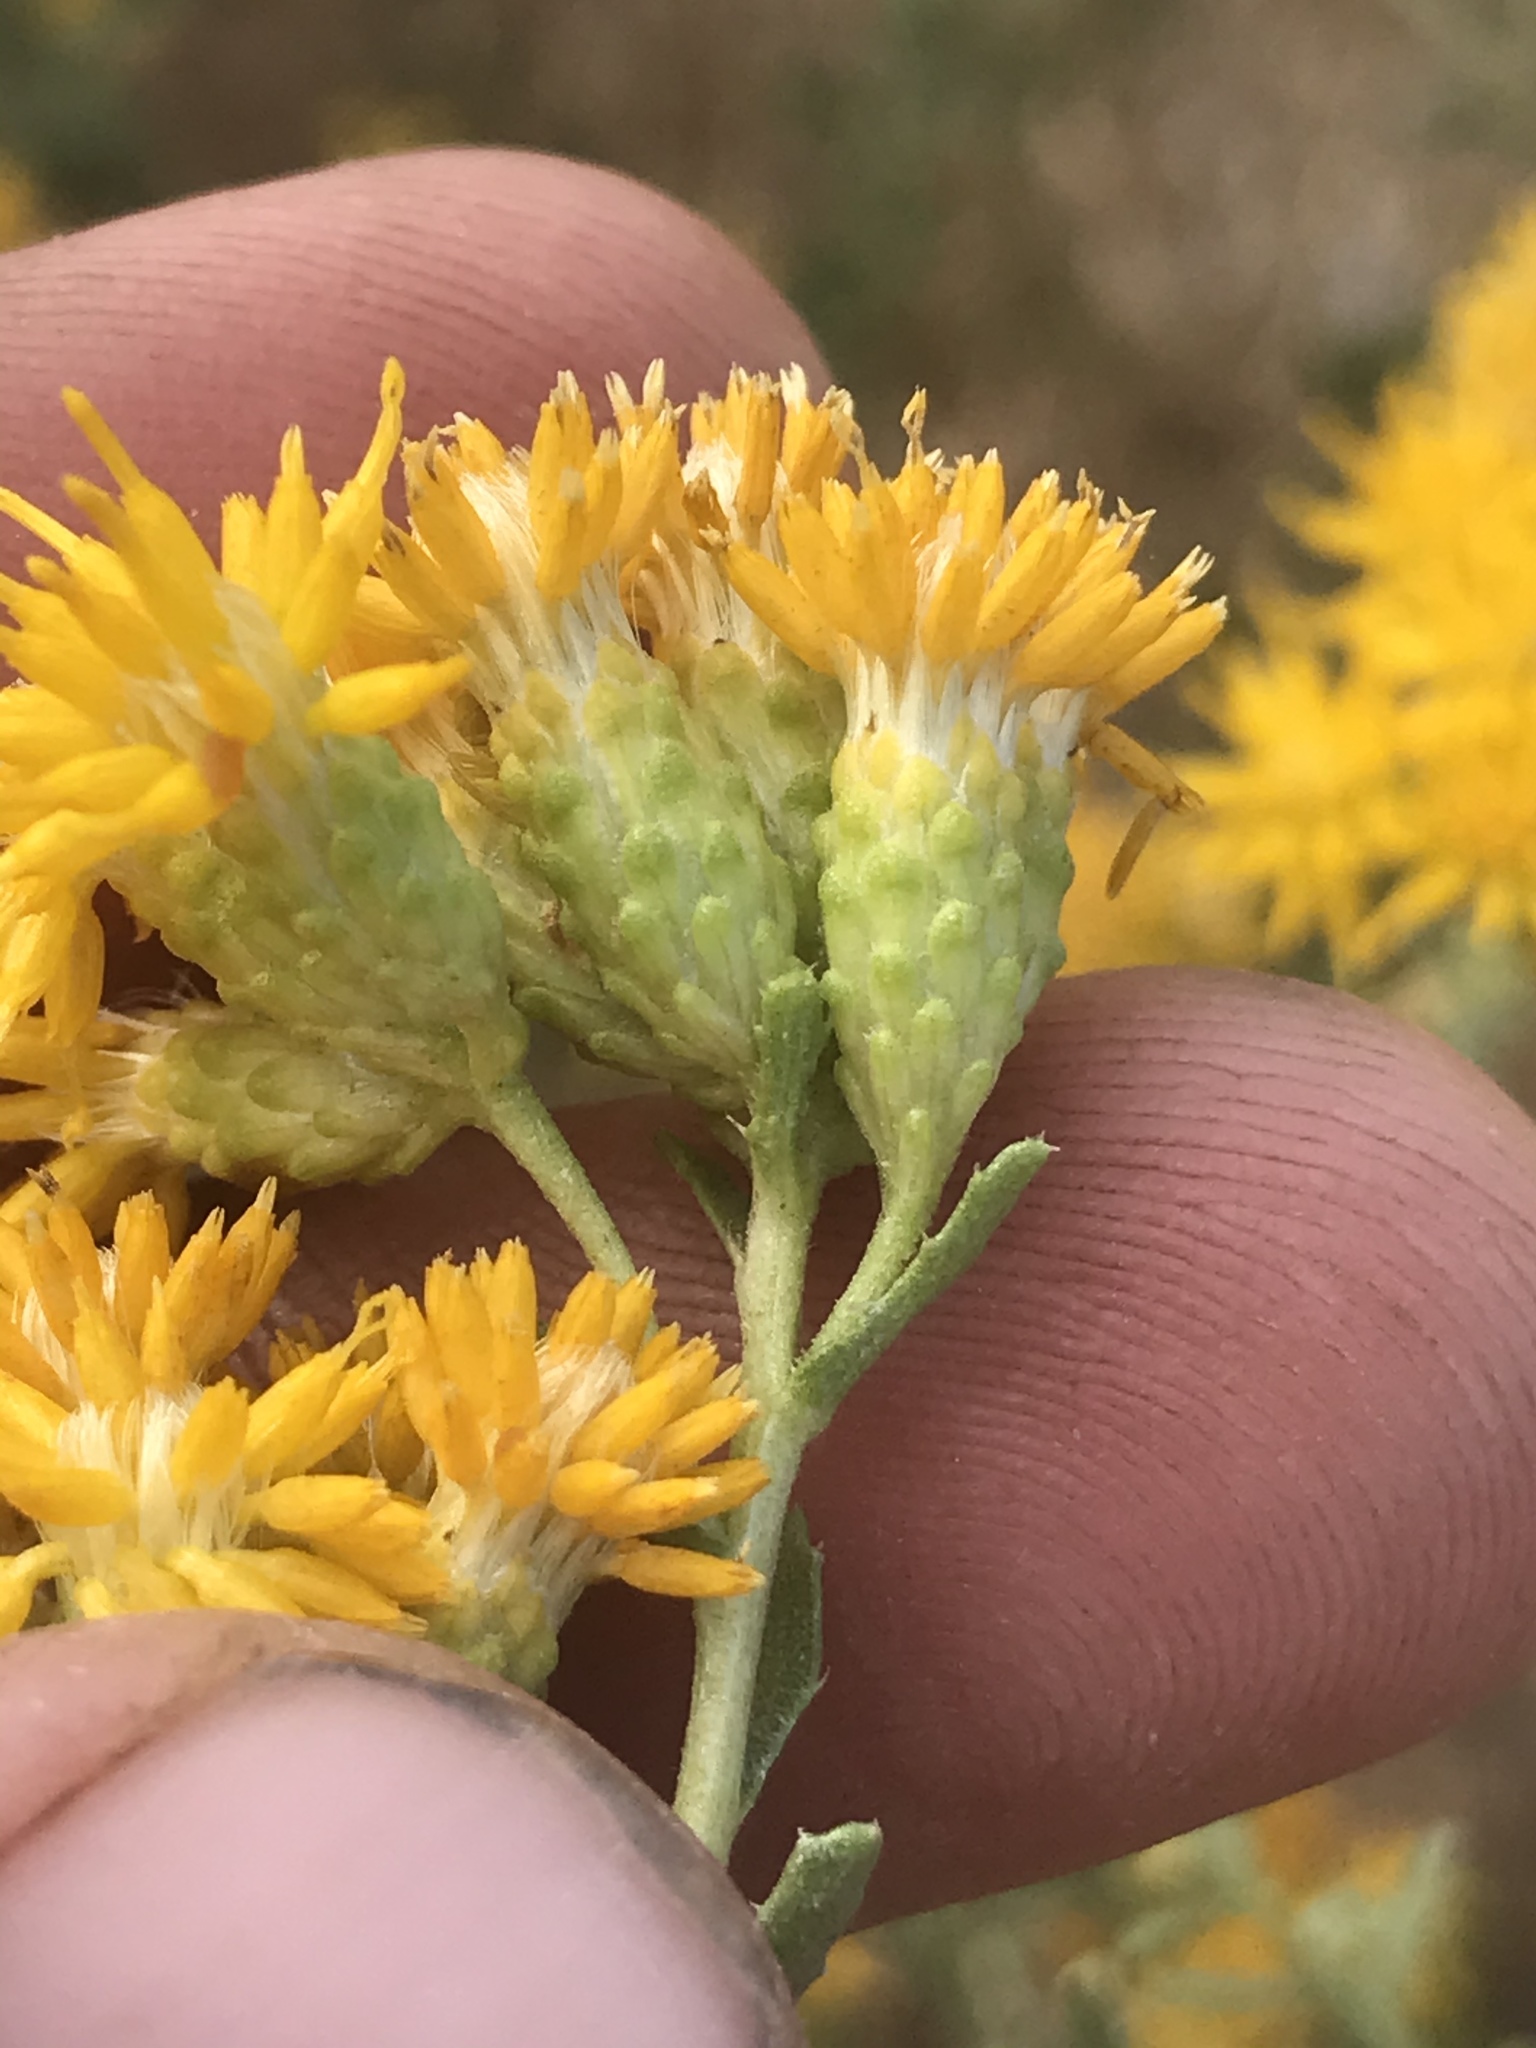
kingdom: Plantae
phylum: Tracheophyta
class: Magnoliopsida
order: Asterales
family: Asteraceae
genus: Isocoma
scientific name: Isocoma acradenia
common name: Alkali jimmyweed
